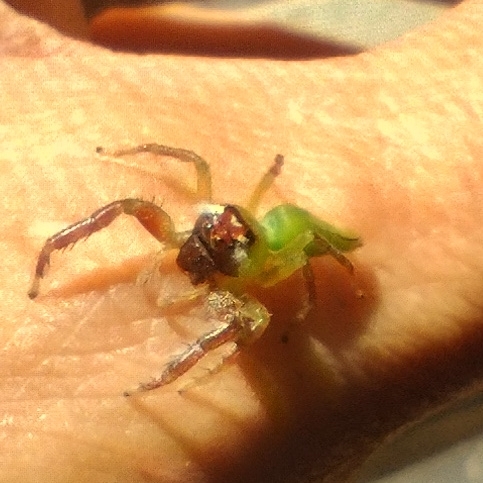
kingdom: Animalia
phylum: Arthropoda
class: Arachnida
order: Araneae
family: Salticidae
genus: Mopsus
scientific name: Mopsus mormon
